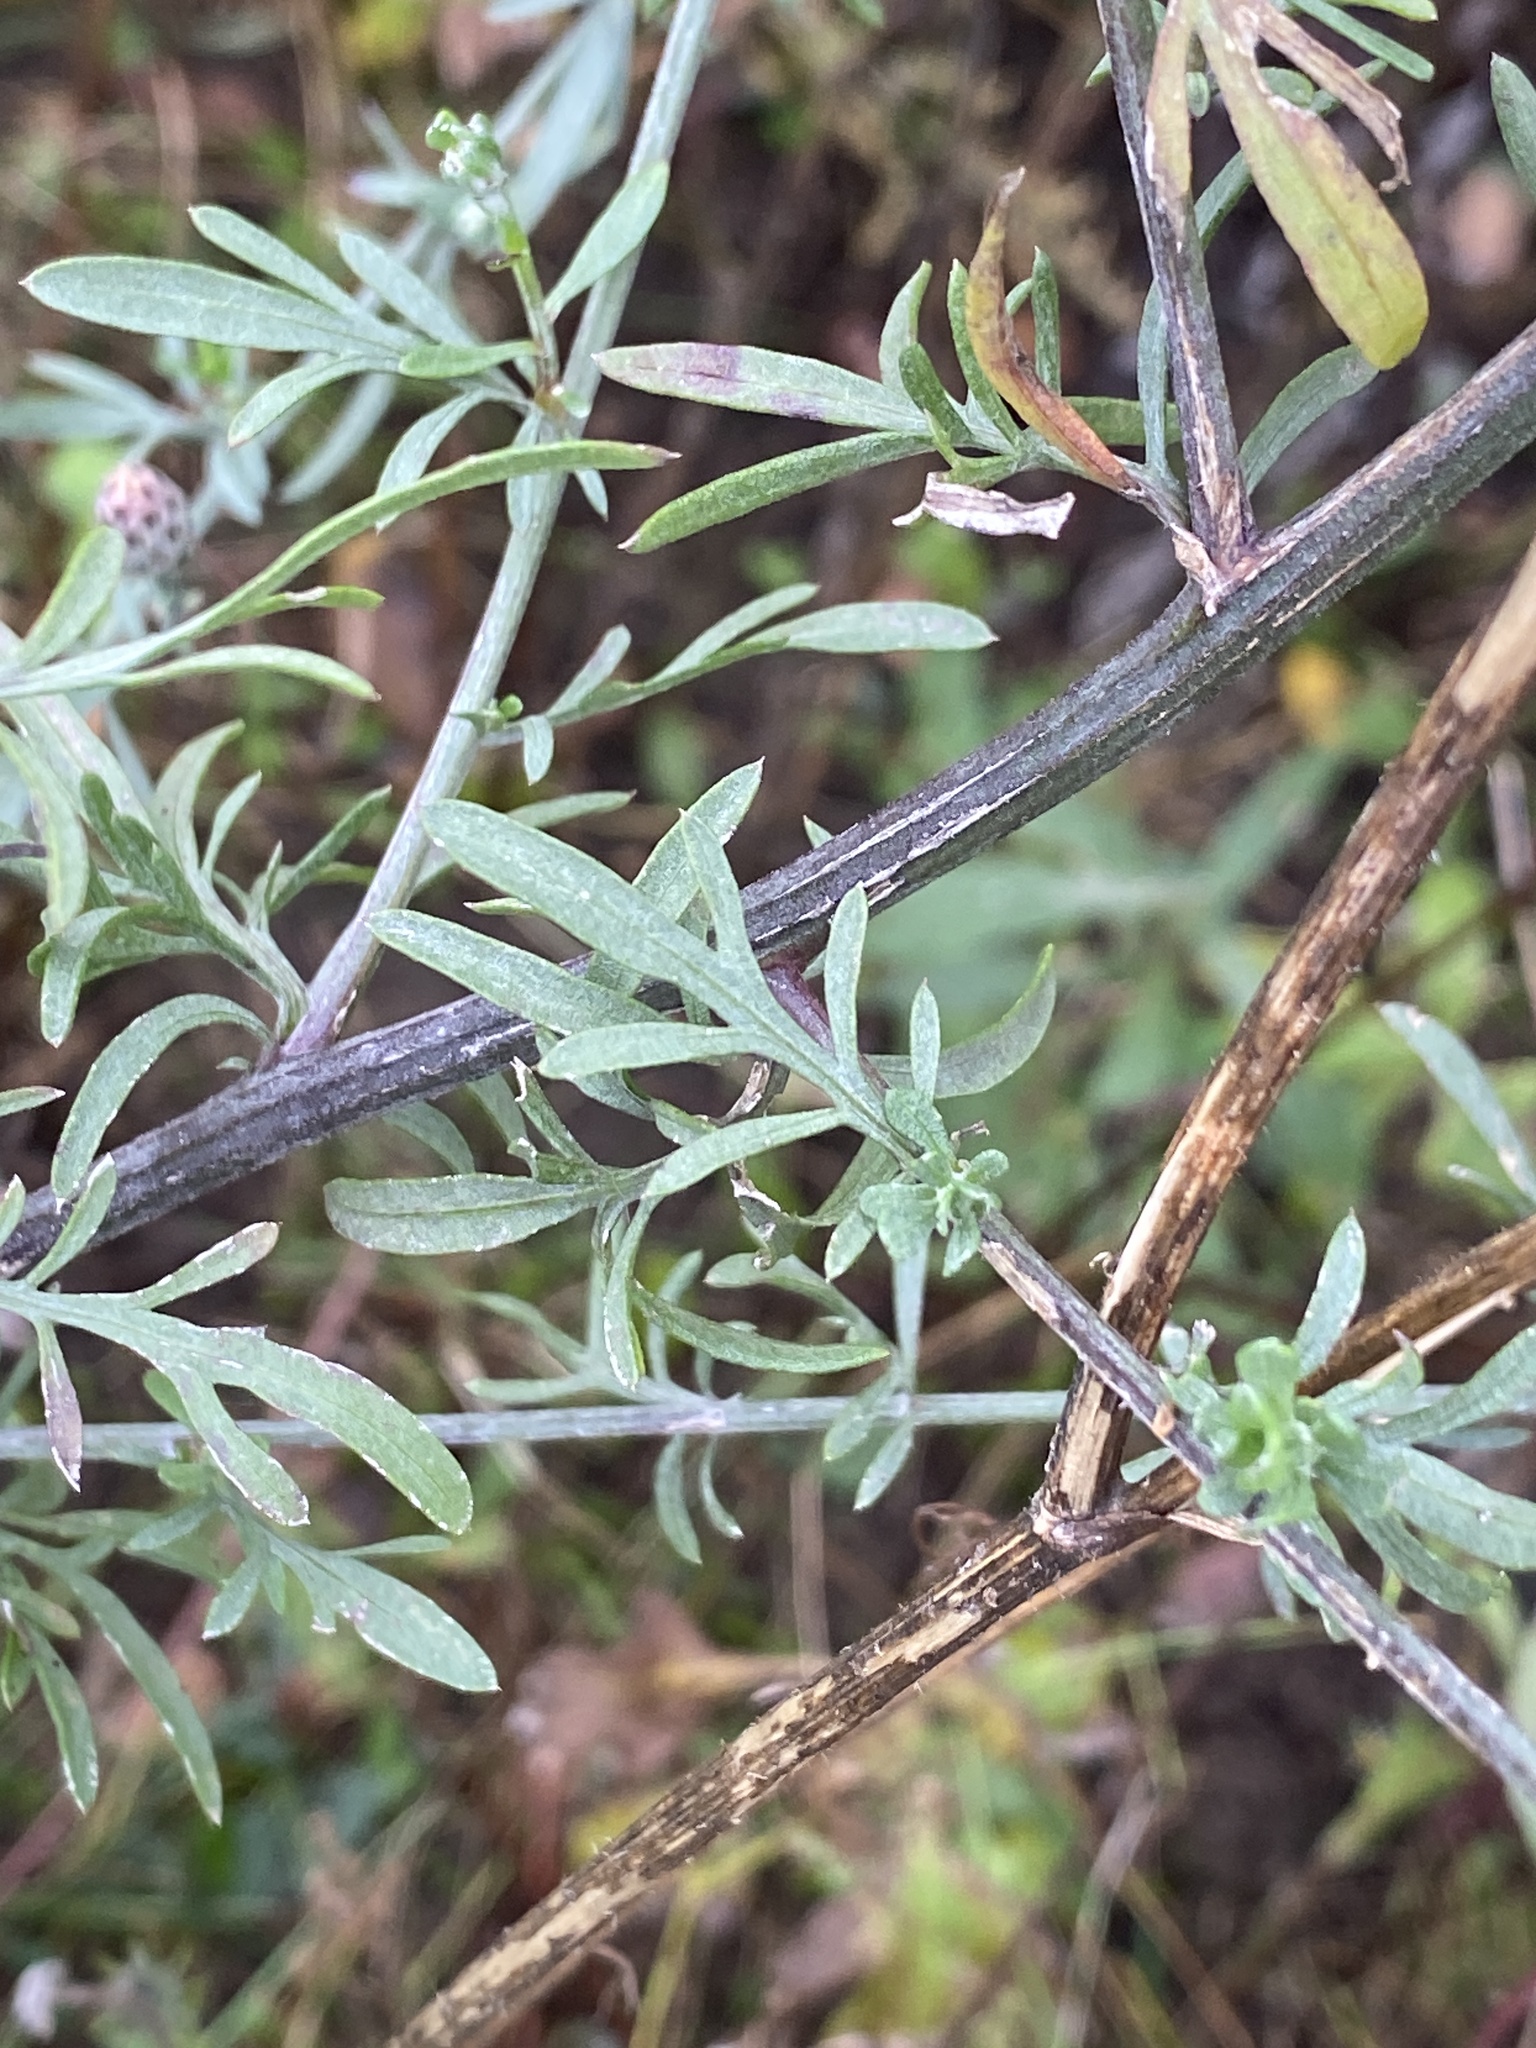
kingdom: Plantae
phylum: Tracheophyta
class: Magnoliopsida
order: Asterales
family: Asteraceae
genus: Centaurea
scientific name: Centaurea stoebe
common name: Spotted knapweed
